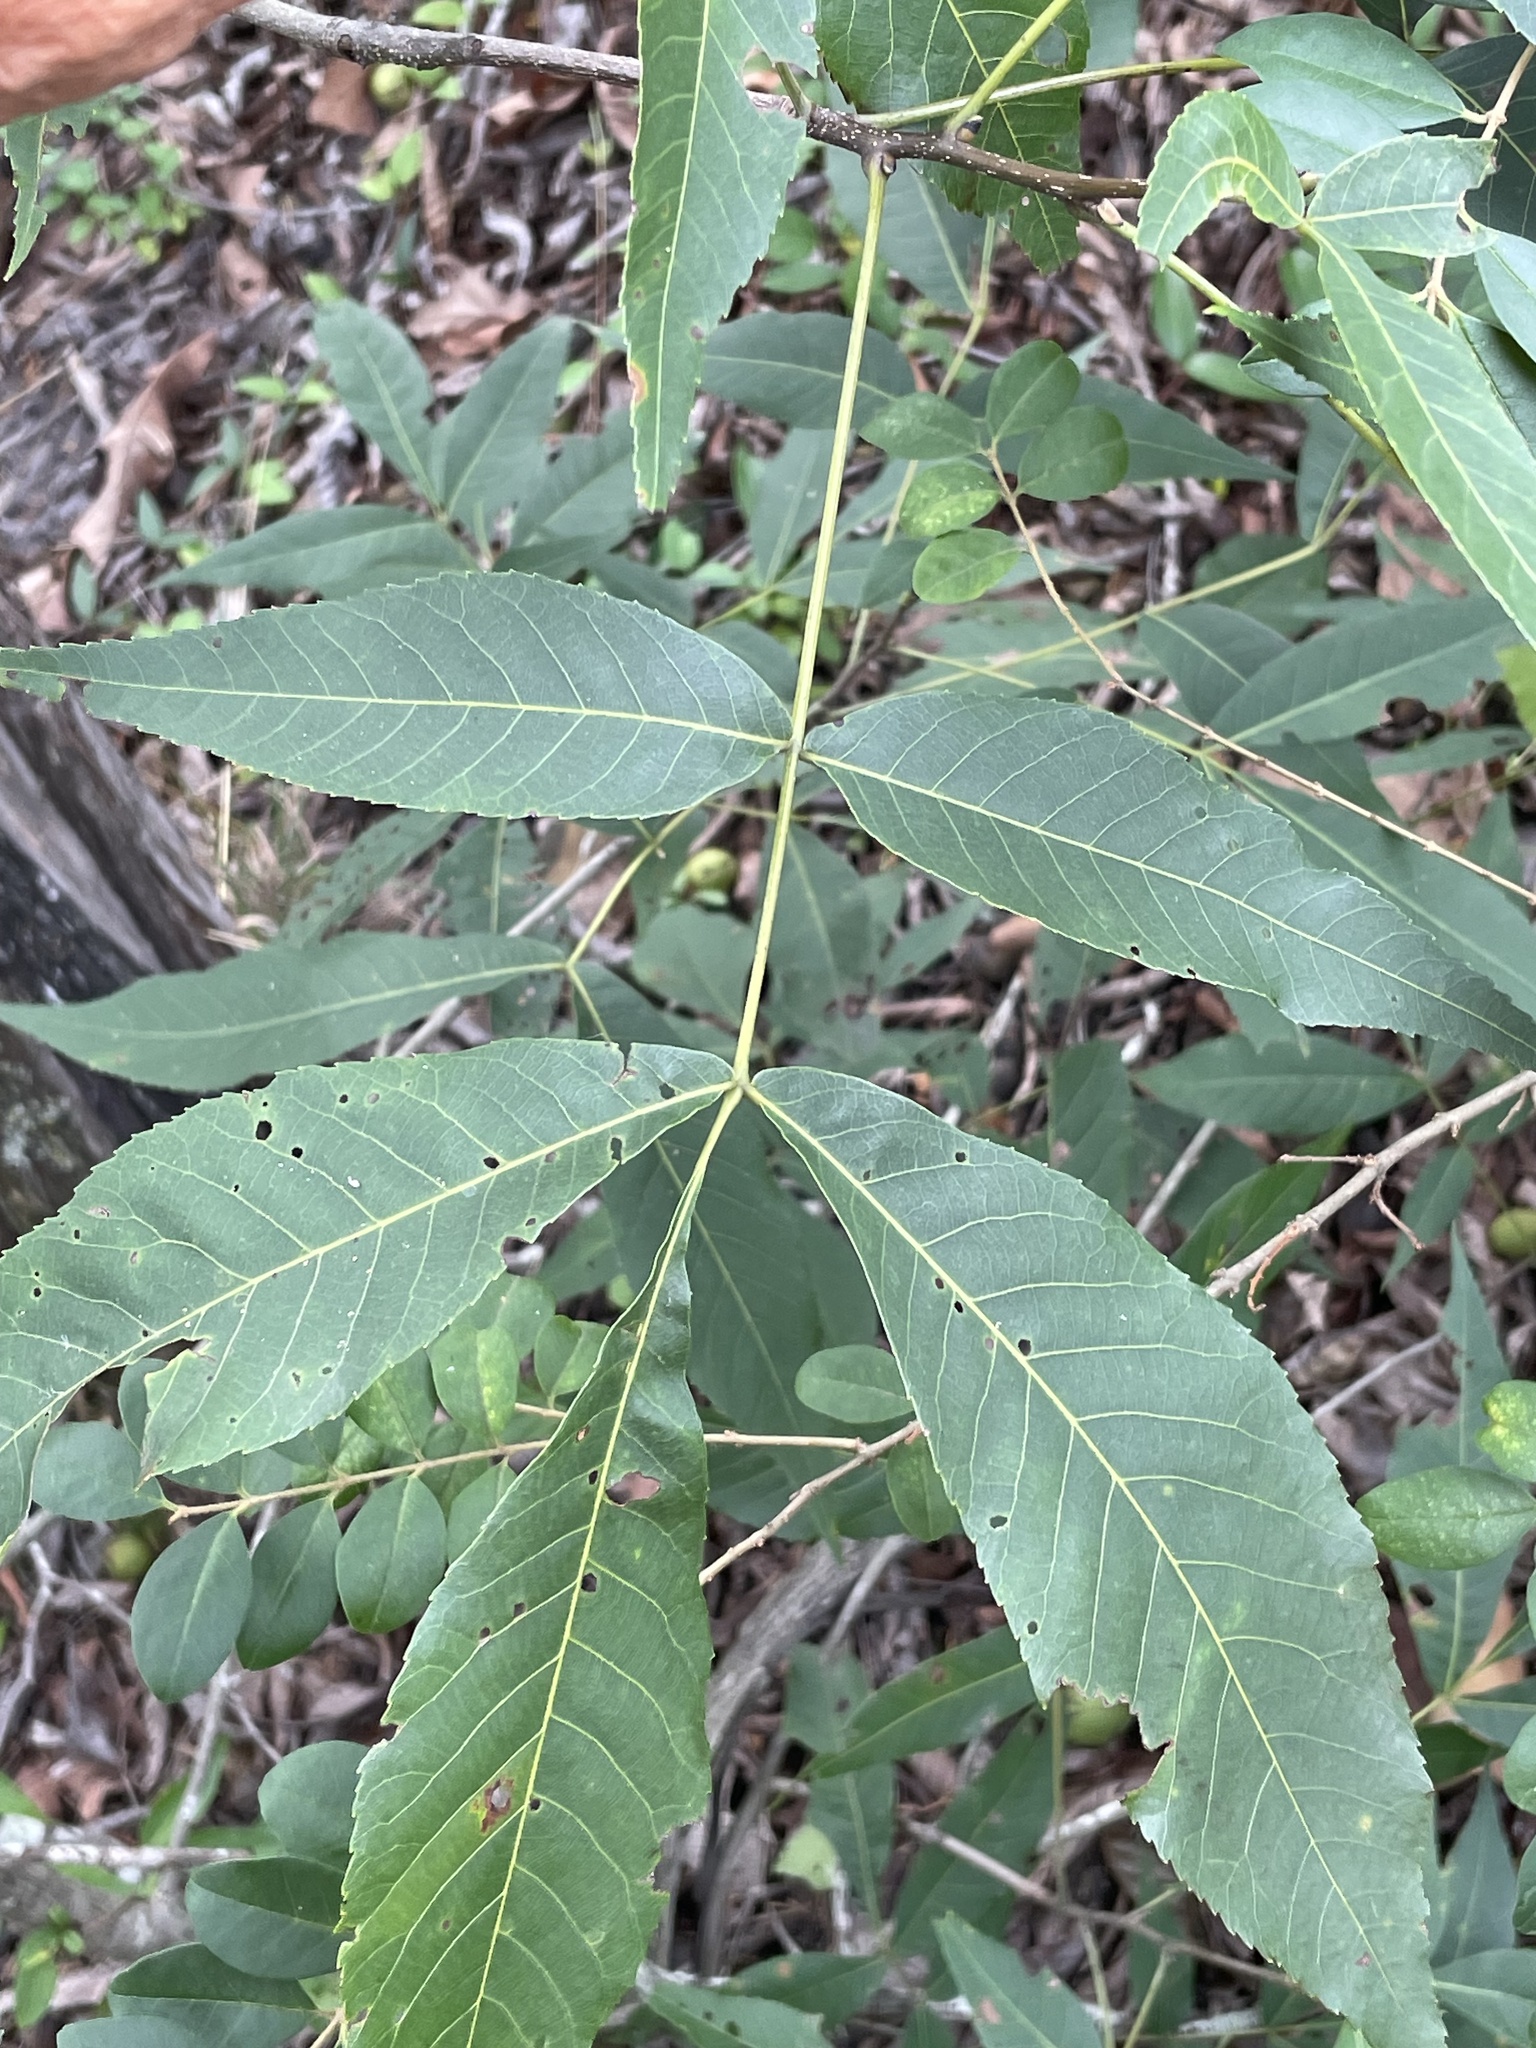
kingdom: Plantae
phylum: Tracheophyta
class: Magnoliopsida
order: Fagales
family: Juglandaceae
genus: Carya
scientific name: Carya ovata
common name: Shagbark hickory
